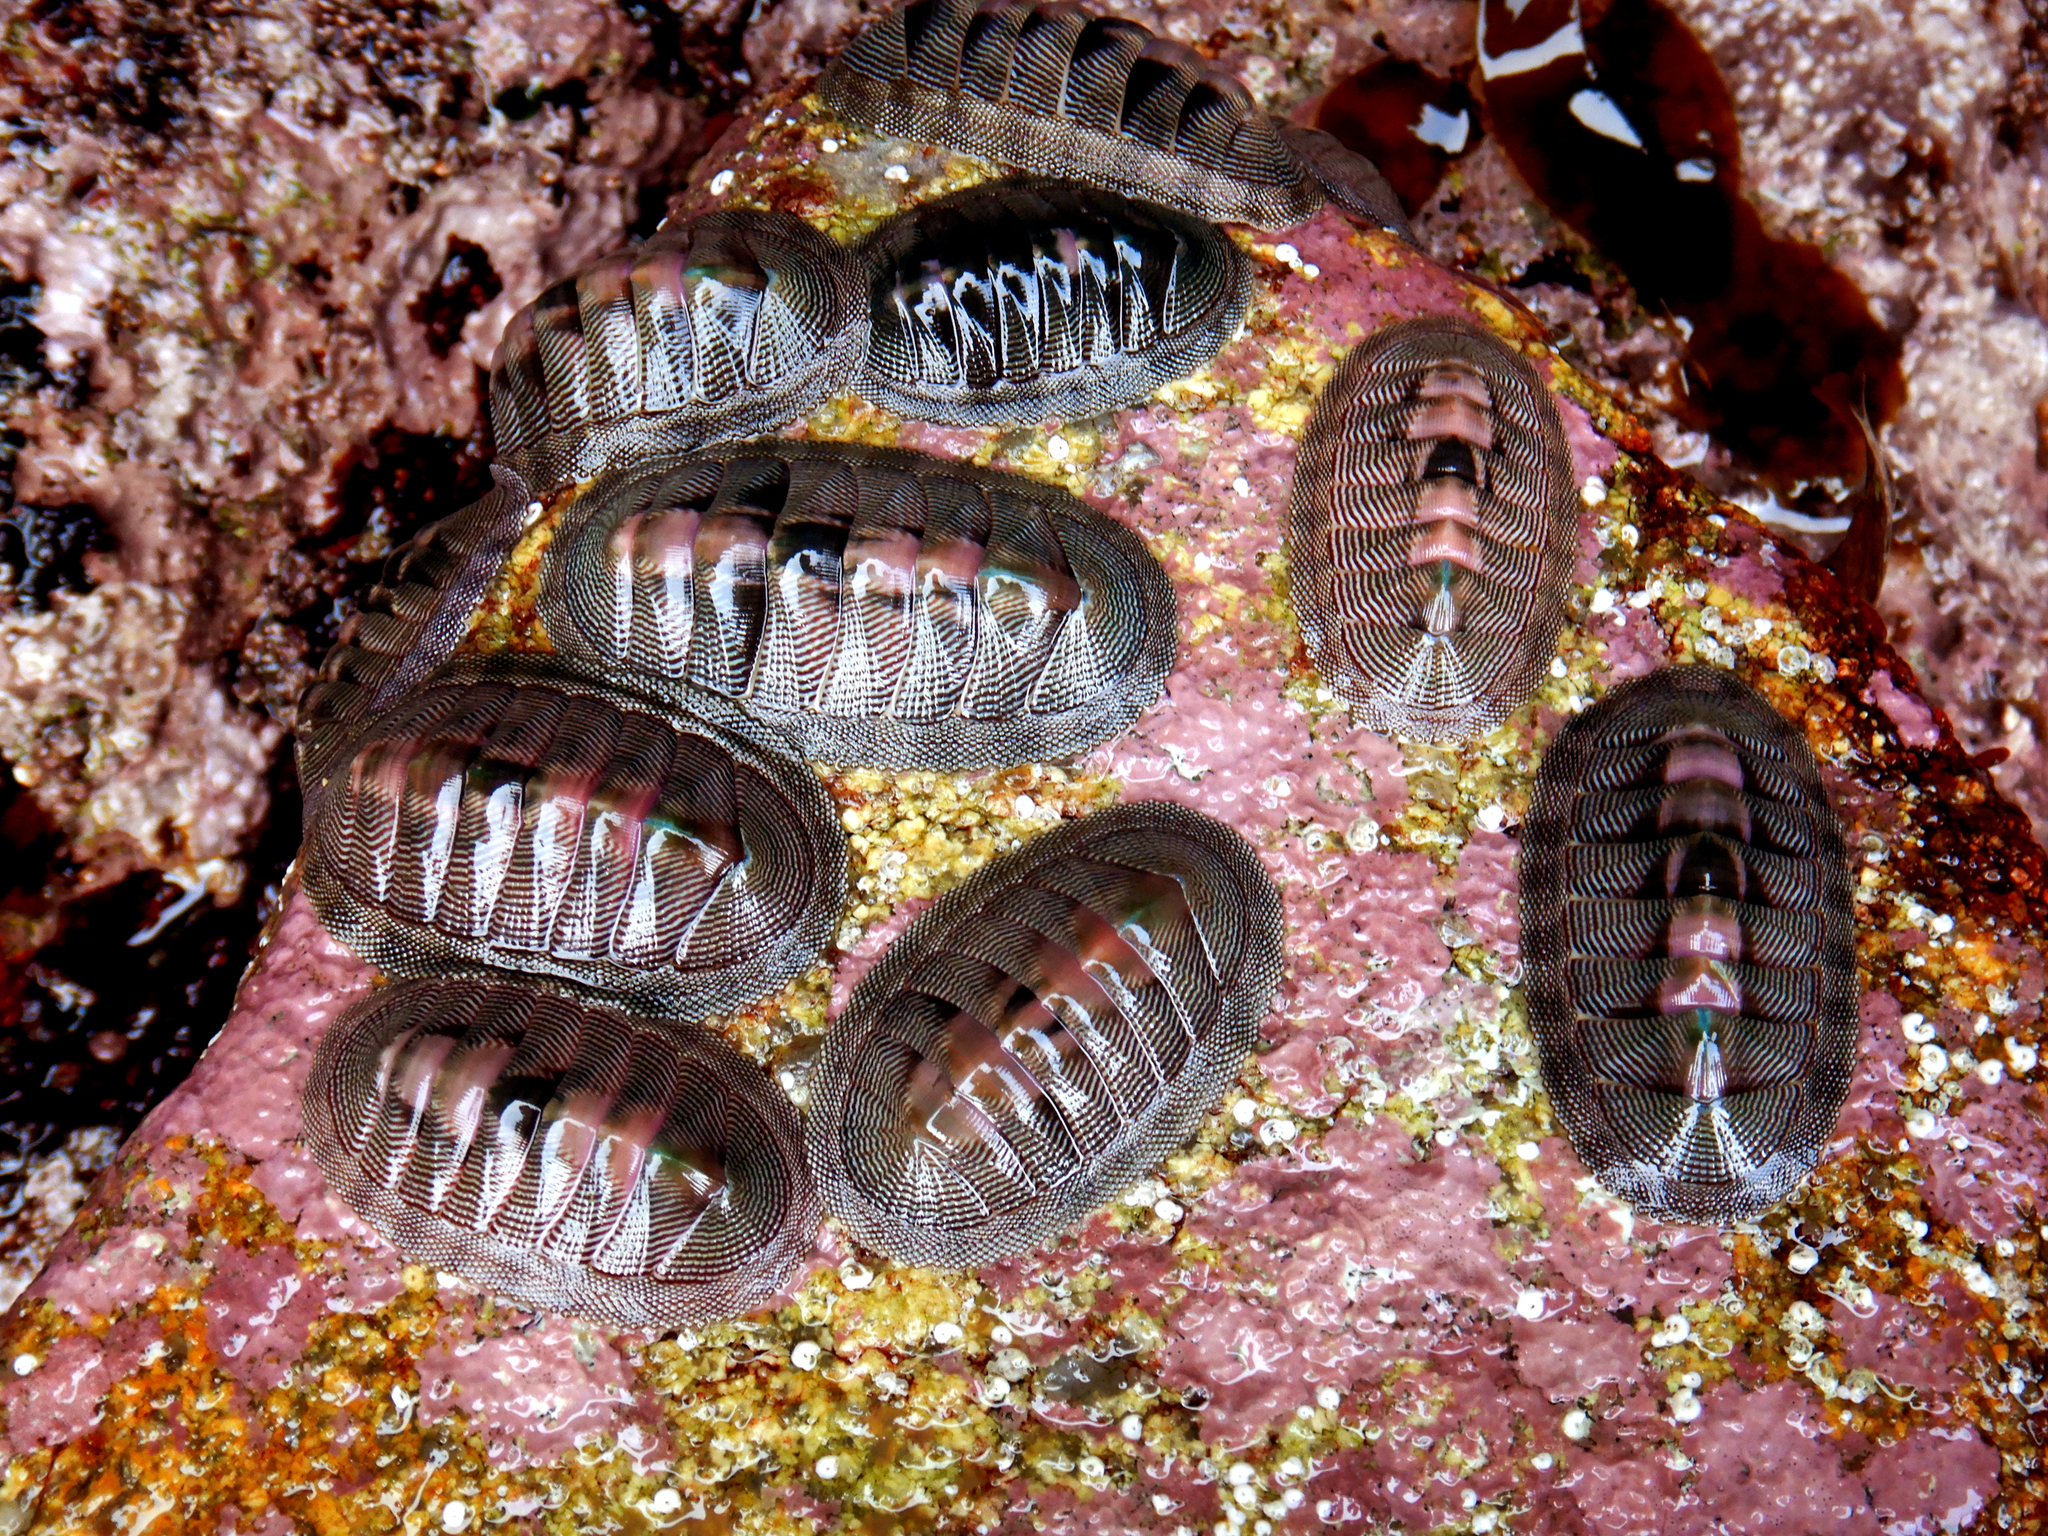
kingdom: Animalia
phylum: Mollusca
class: Polyplacophora
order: Chitonida
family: Chitonidae
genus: Chiton
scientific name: Chiton cumingsii
